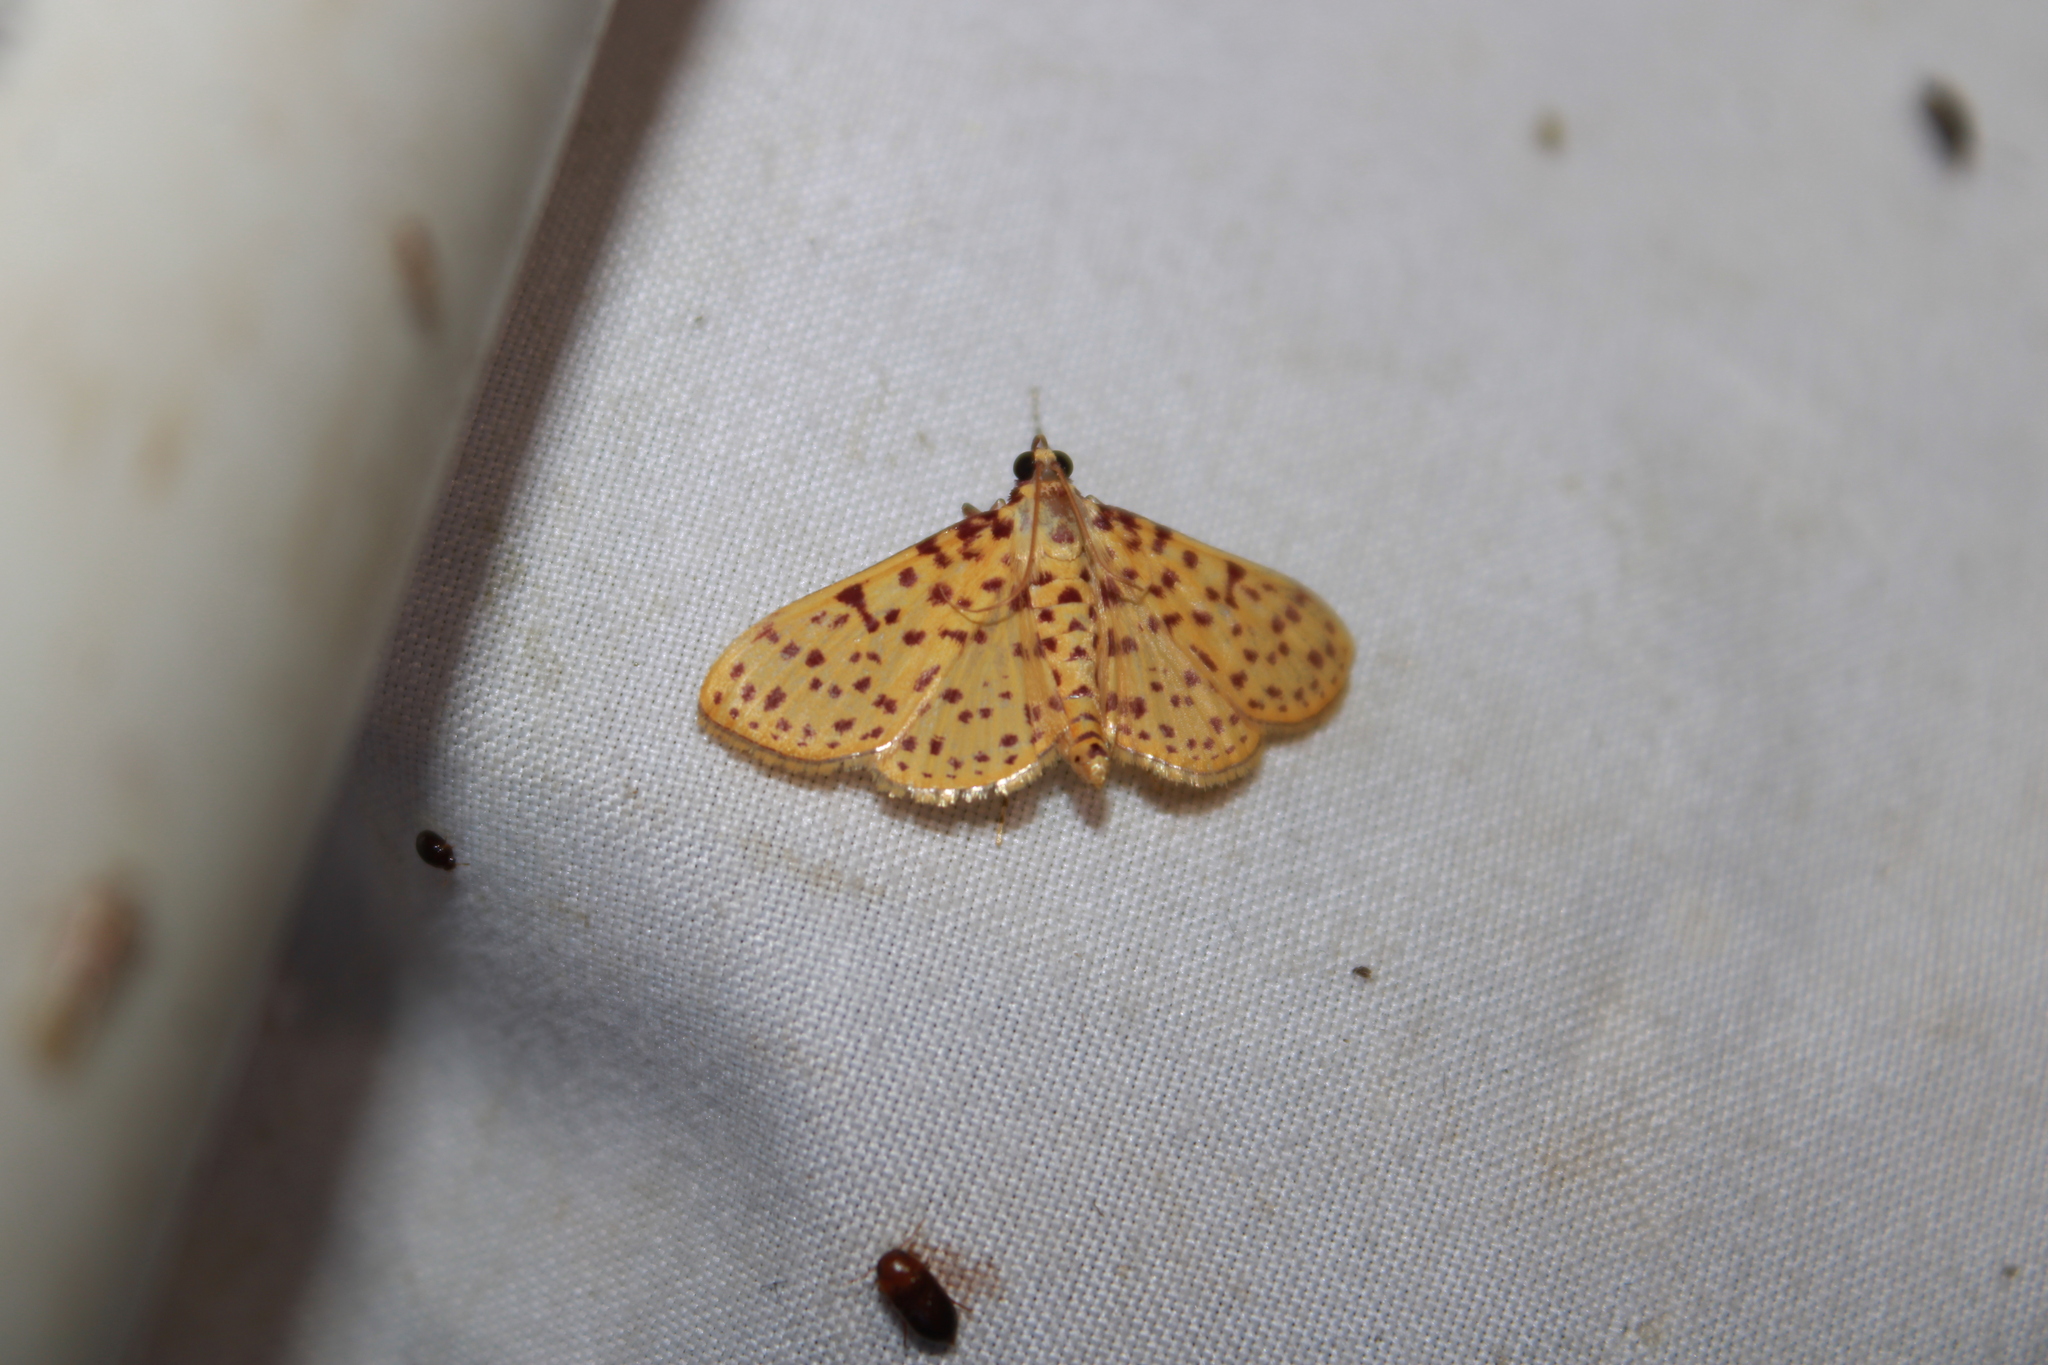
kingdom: Animalia
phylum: Arthropoda
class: Insecta
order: Lepidoptera
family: Crambidae
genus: Polygrammodes
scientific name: Polygrammodes elevata
